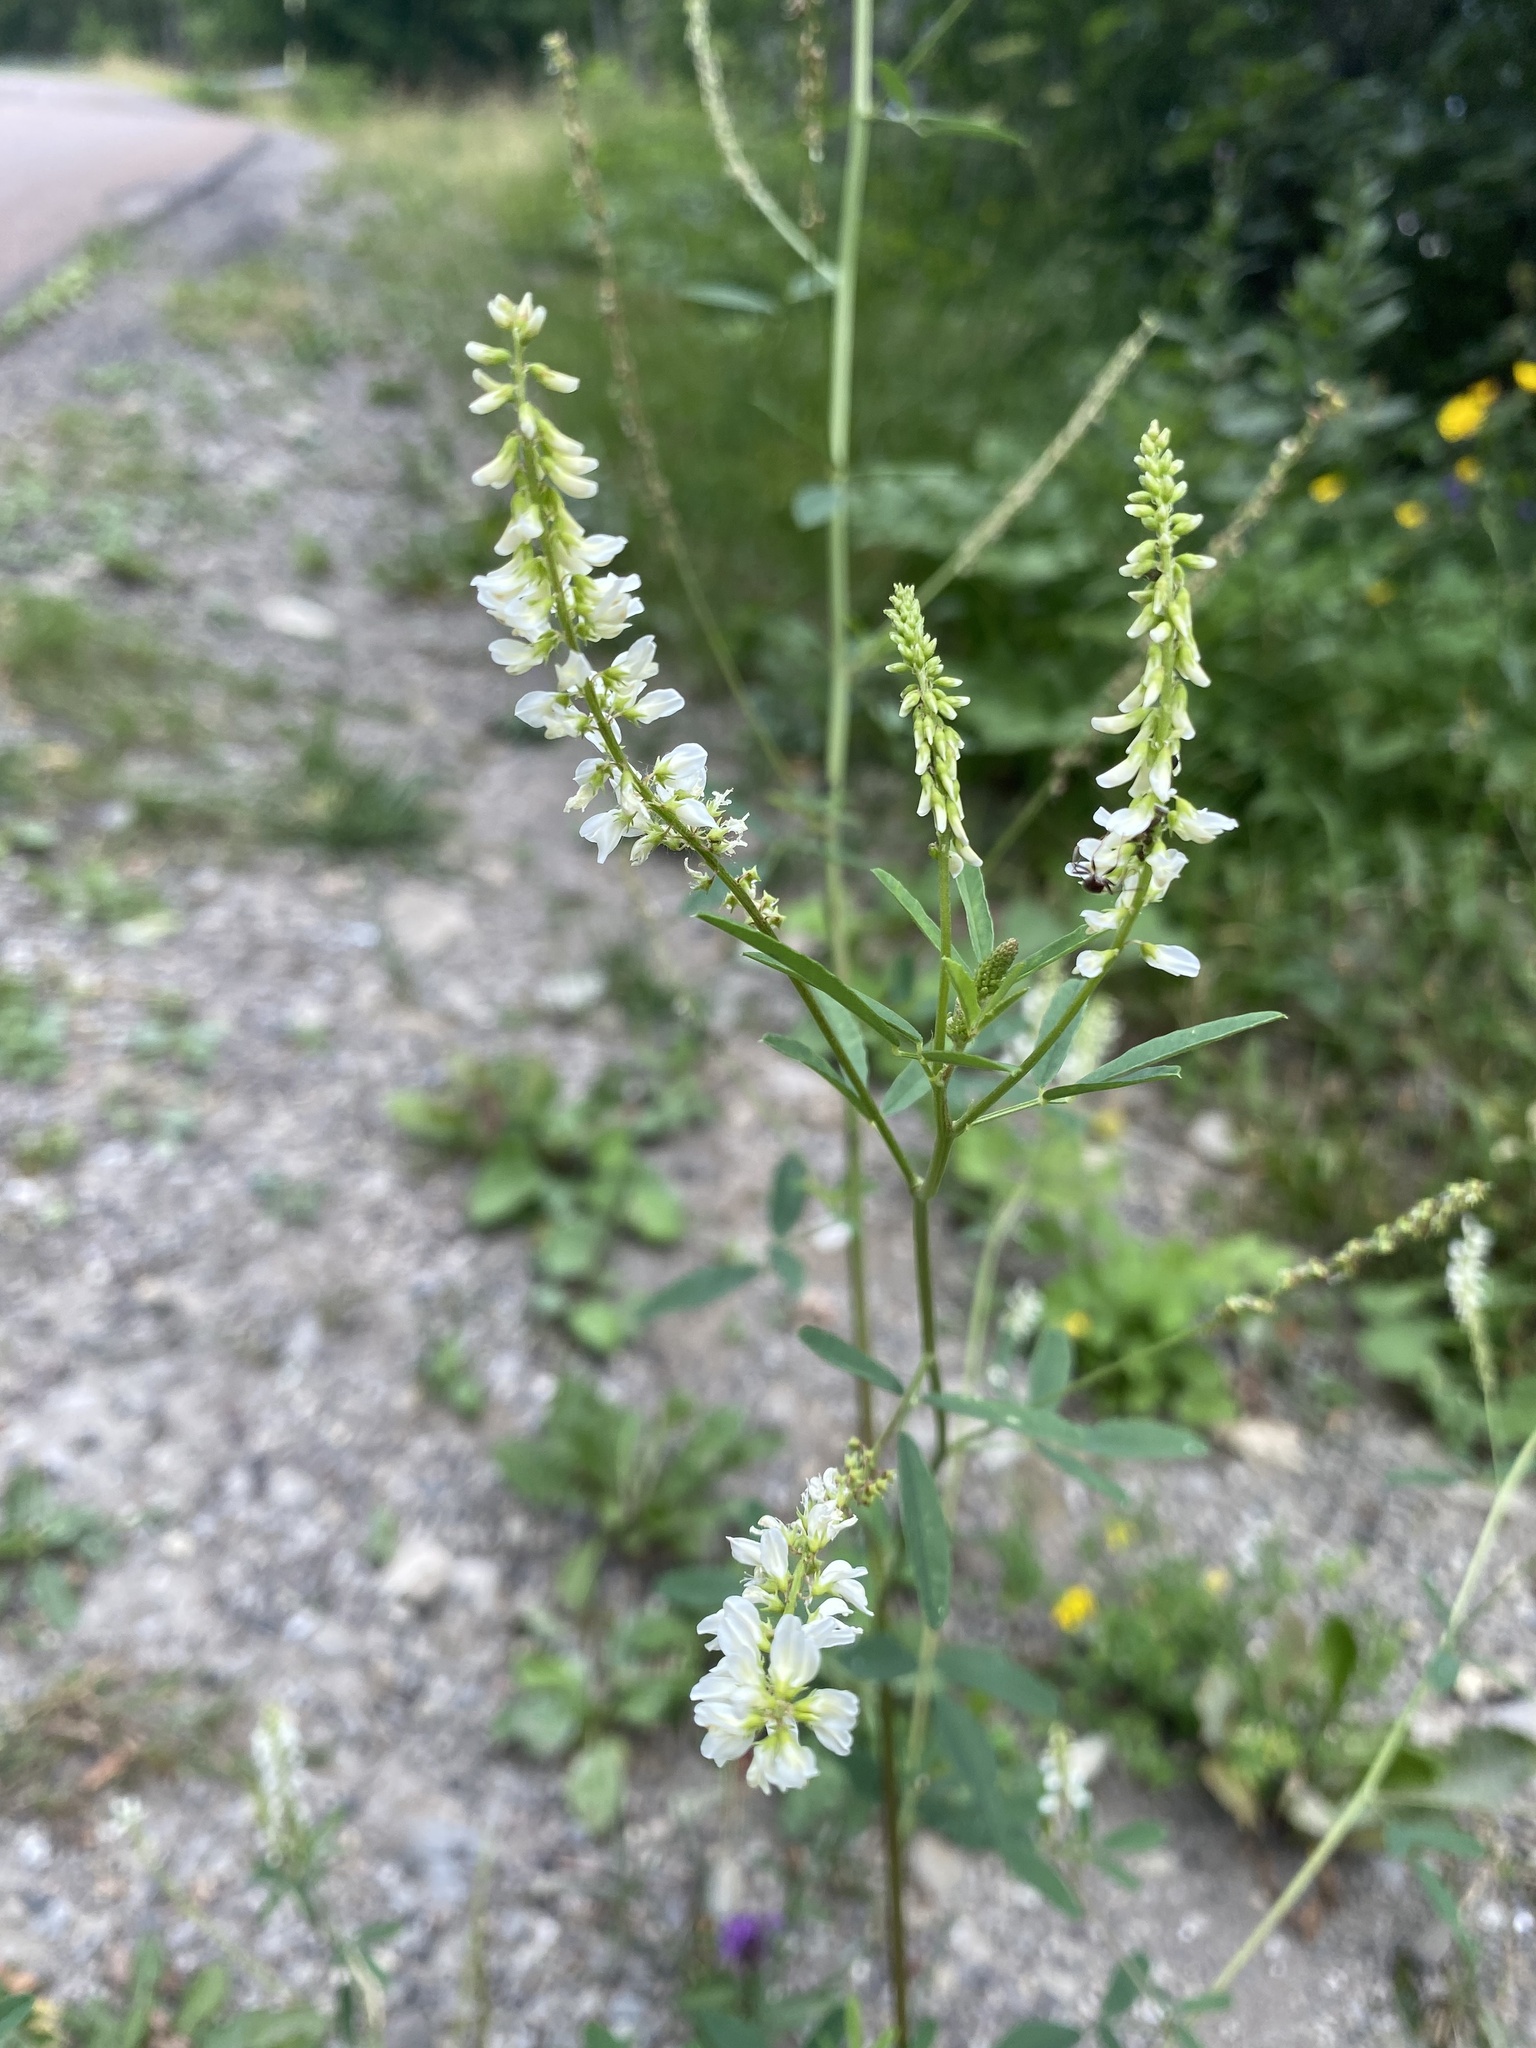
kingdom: Plantae
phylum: Tracheophyta
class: Magnoliopsida
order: Fabales
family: Fabaceae
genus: Melilotus
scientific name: Melilotus albus
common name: White melilot
